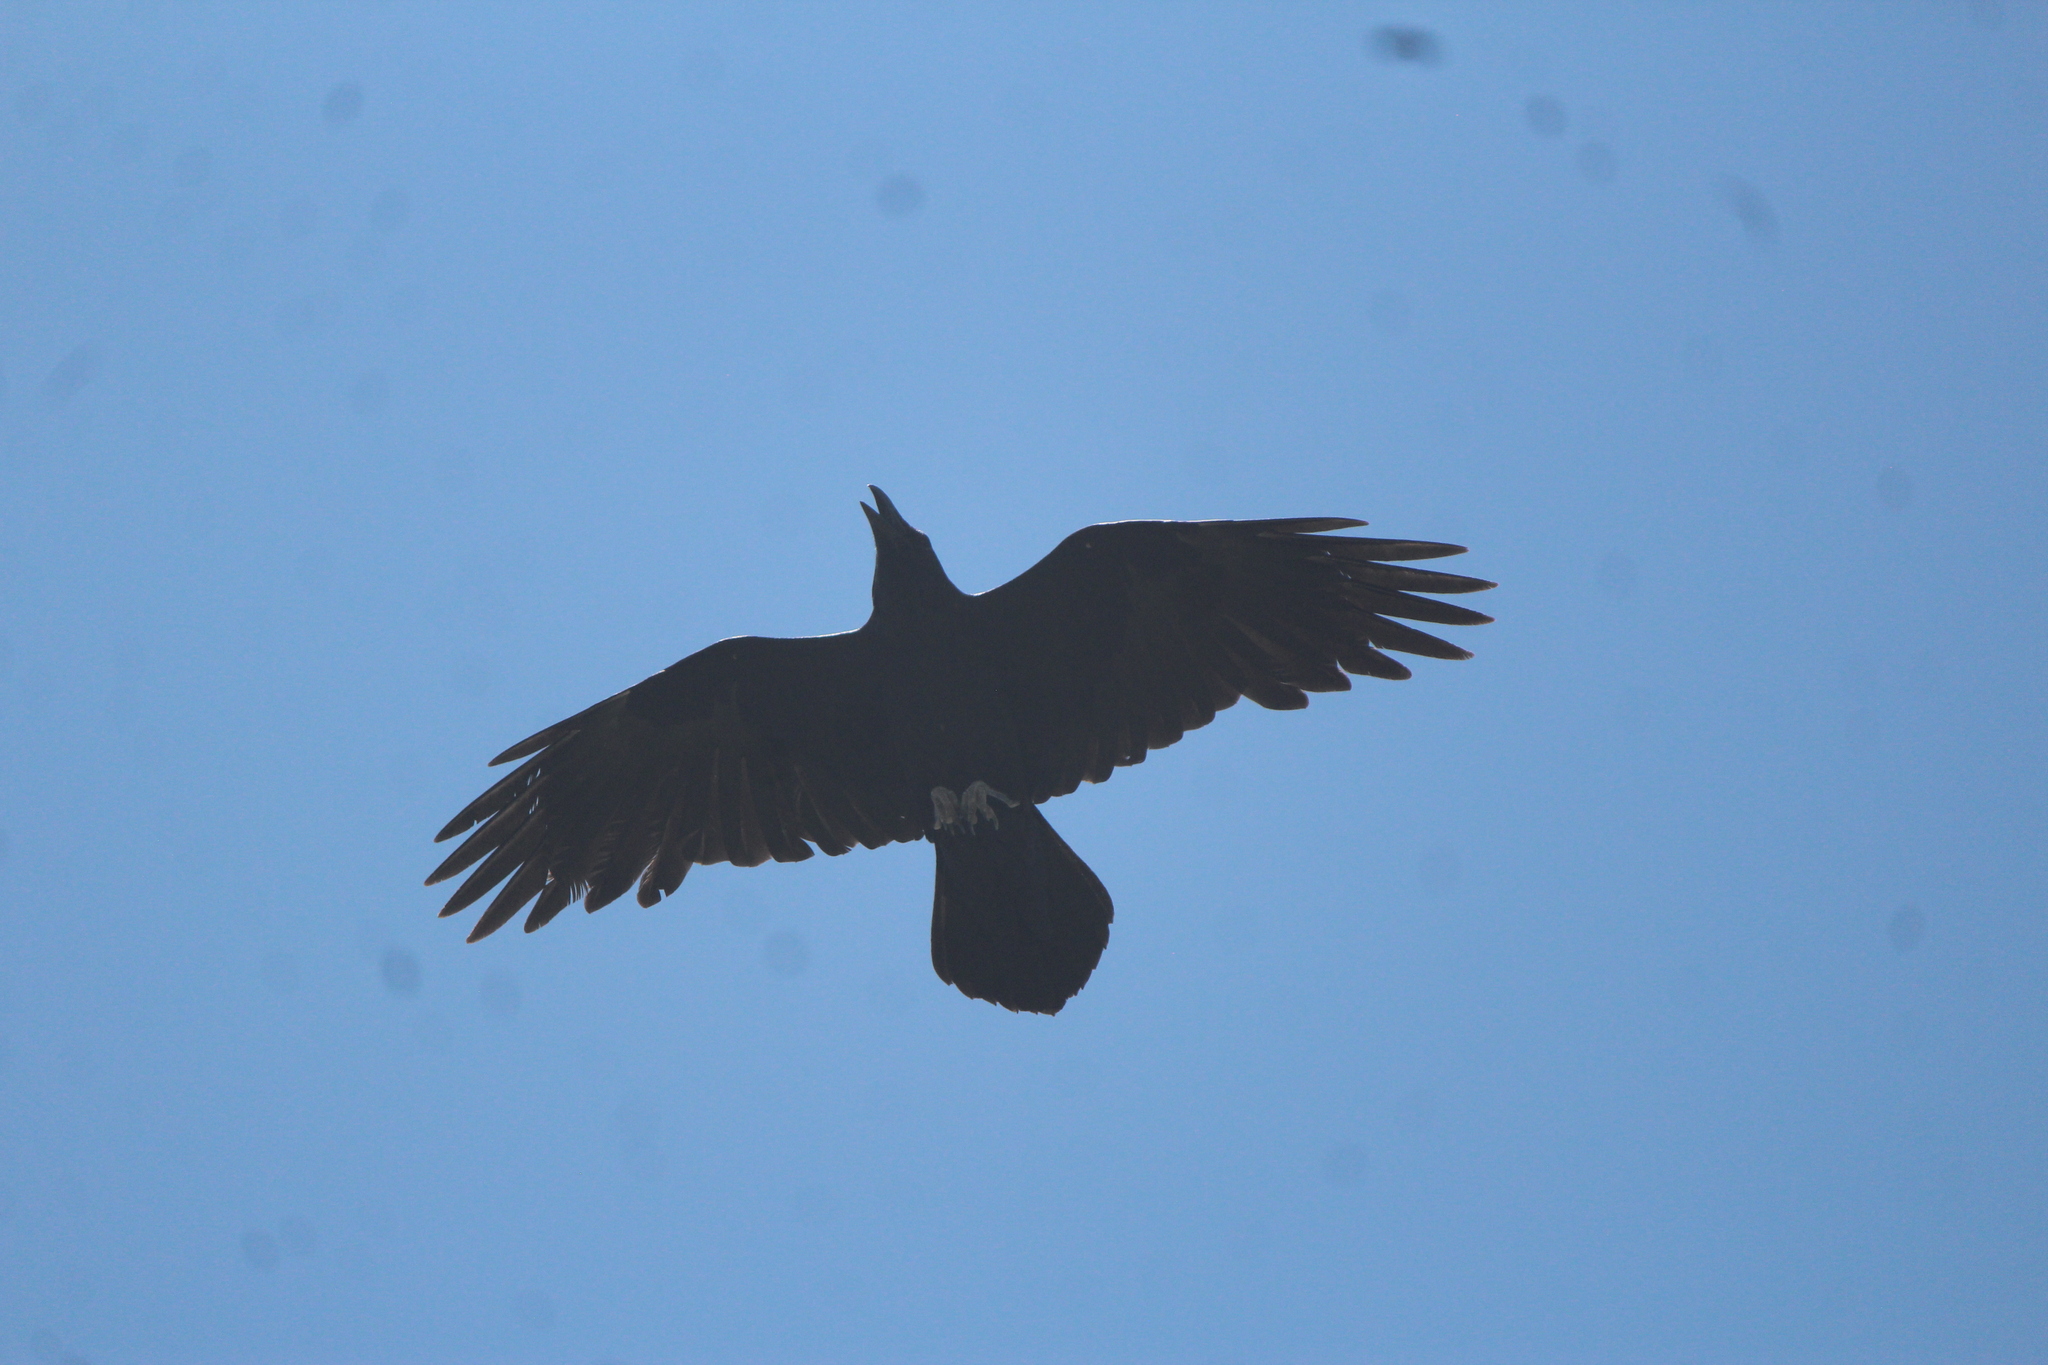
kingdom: Animalia
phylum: Chordata
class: Aves
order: Passeriformes
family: Corvidae
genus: Corvus
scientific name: Corvus corax
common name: Common raven
